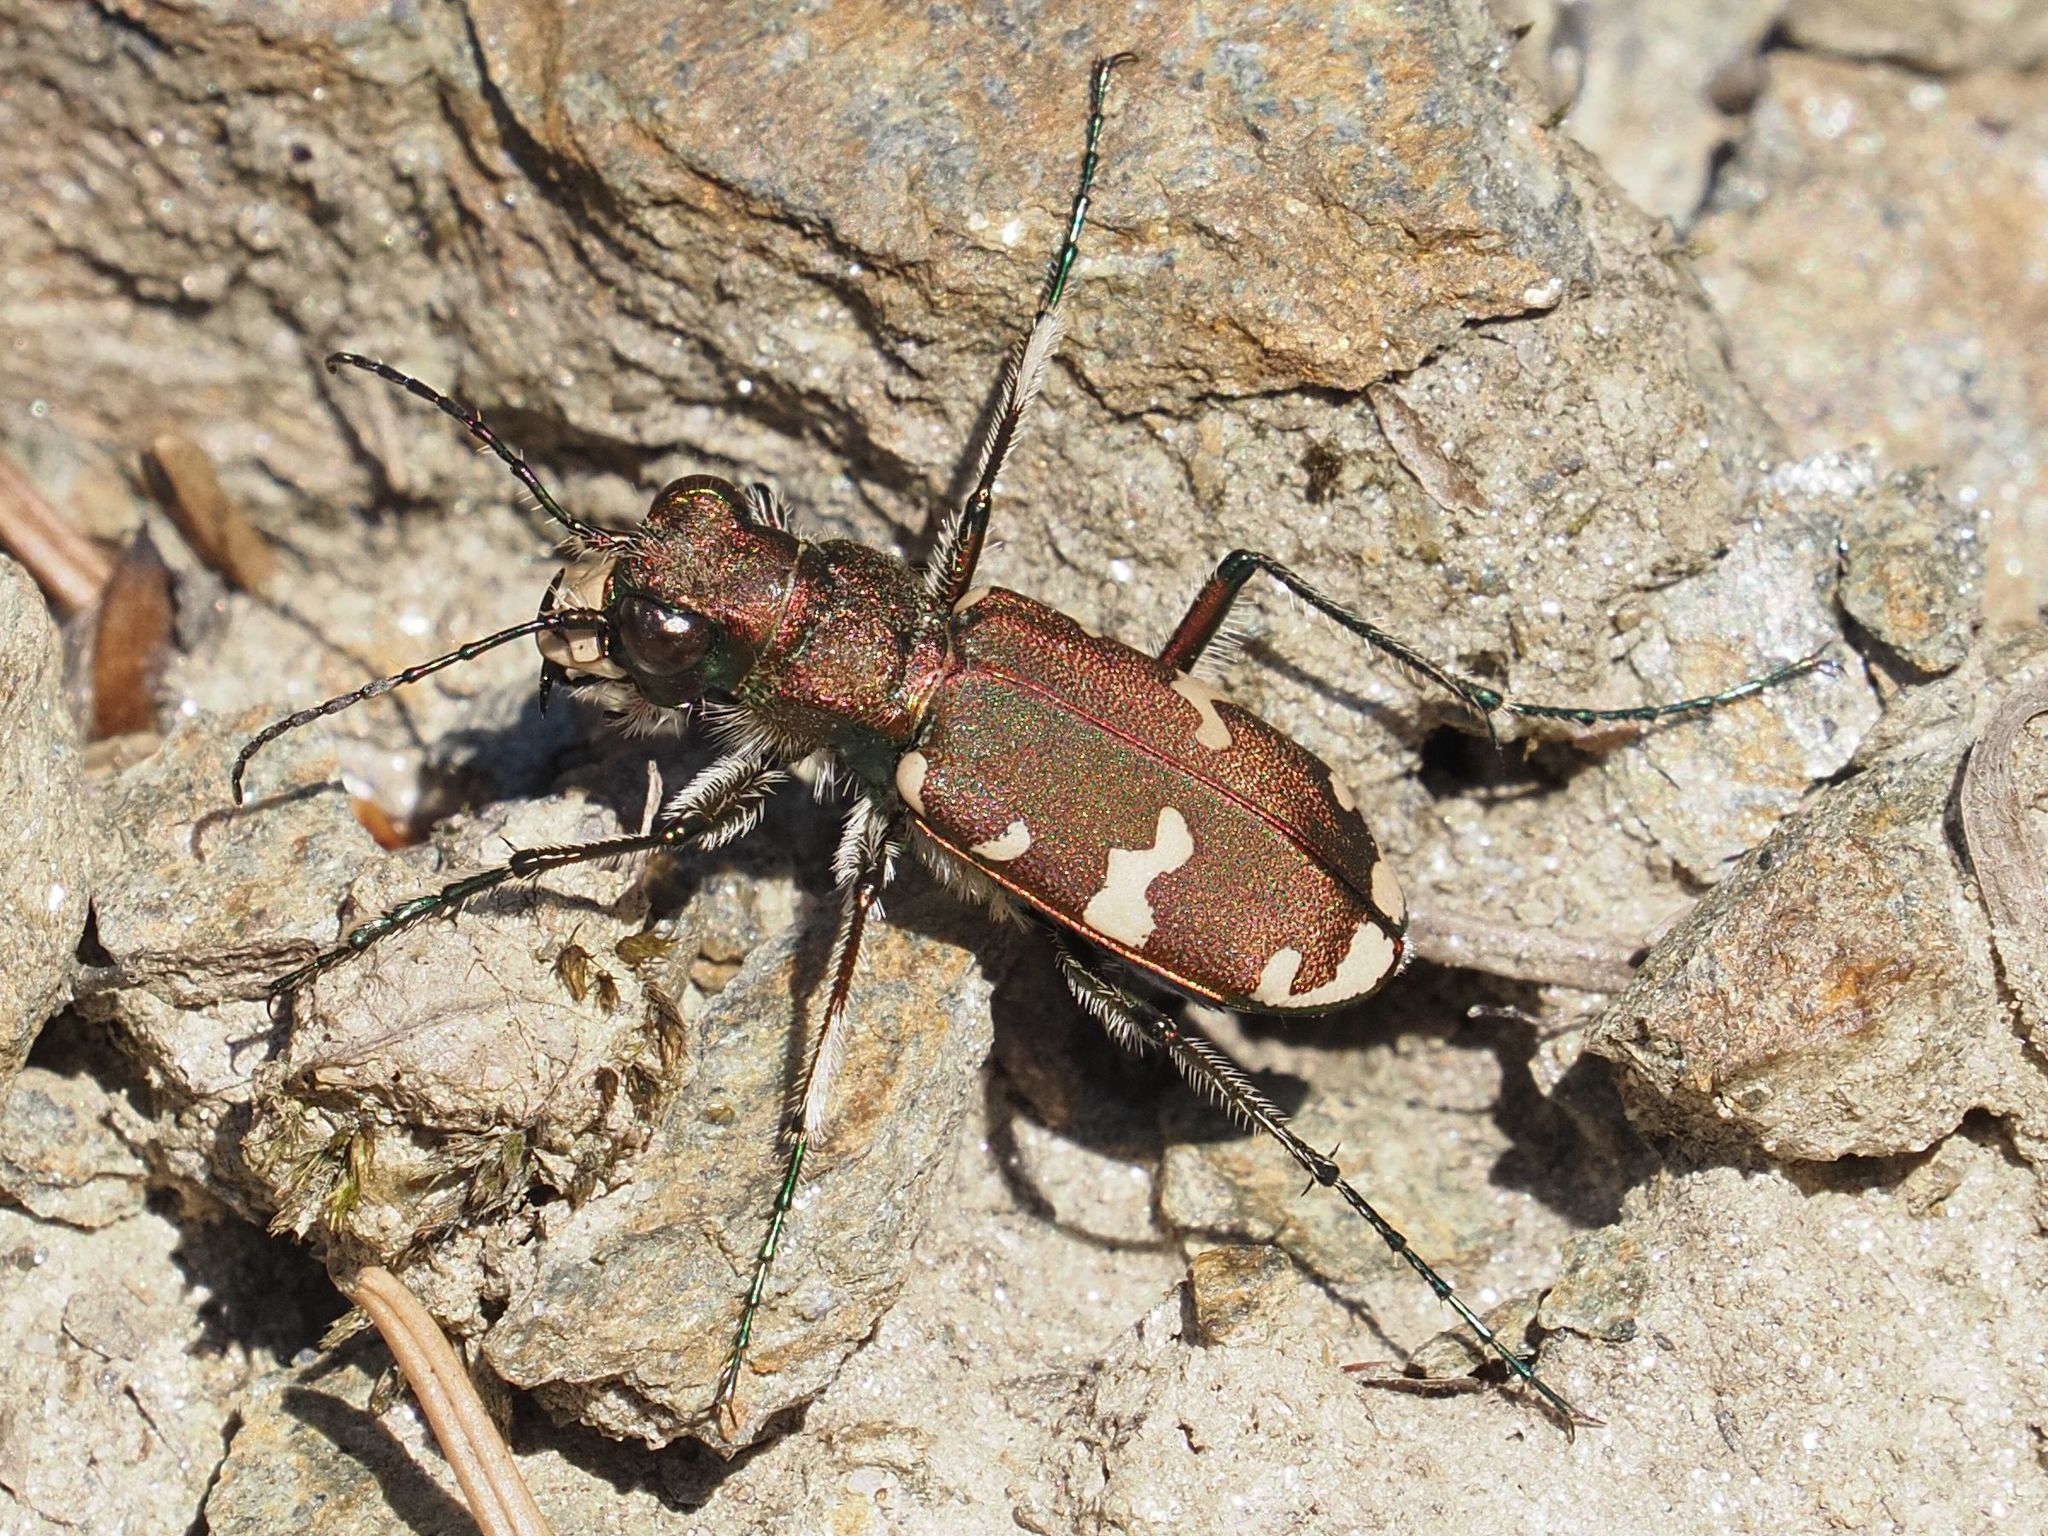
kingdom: Animalia
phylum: Arthropoda
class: Insecta
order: Coleoptera
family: Carabidae
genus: Cicindela
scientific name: Cicindela sylvicola
